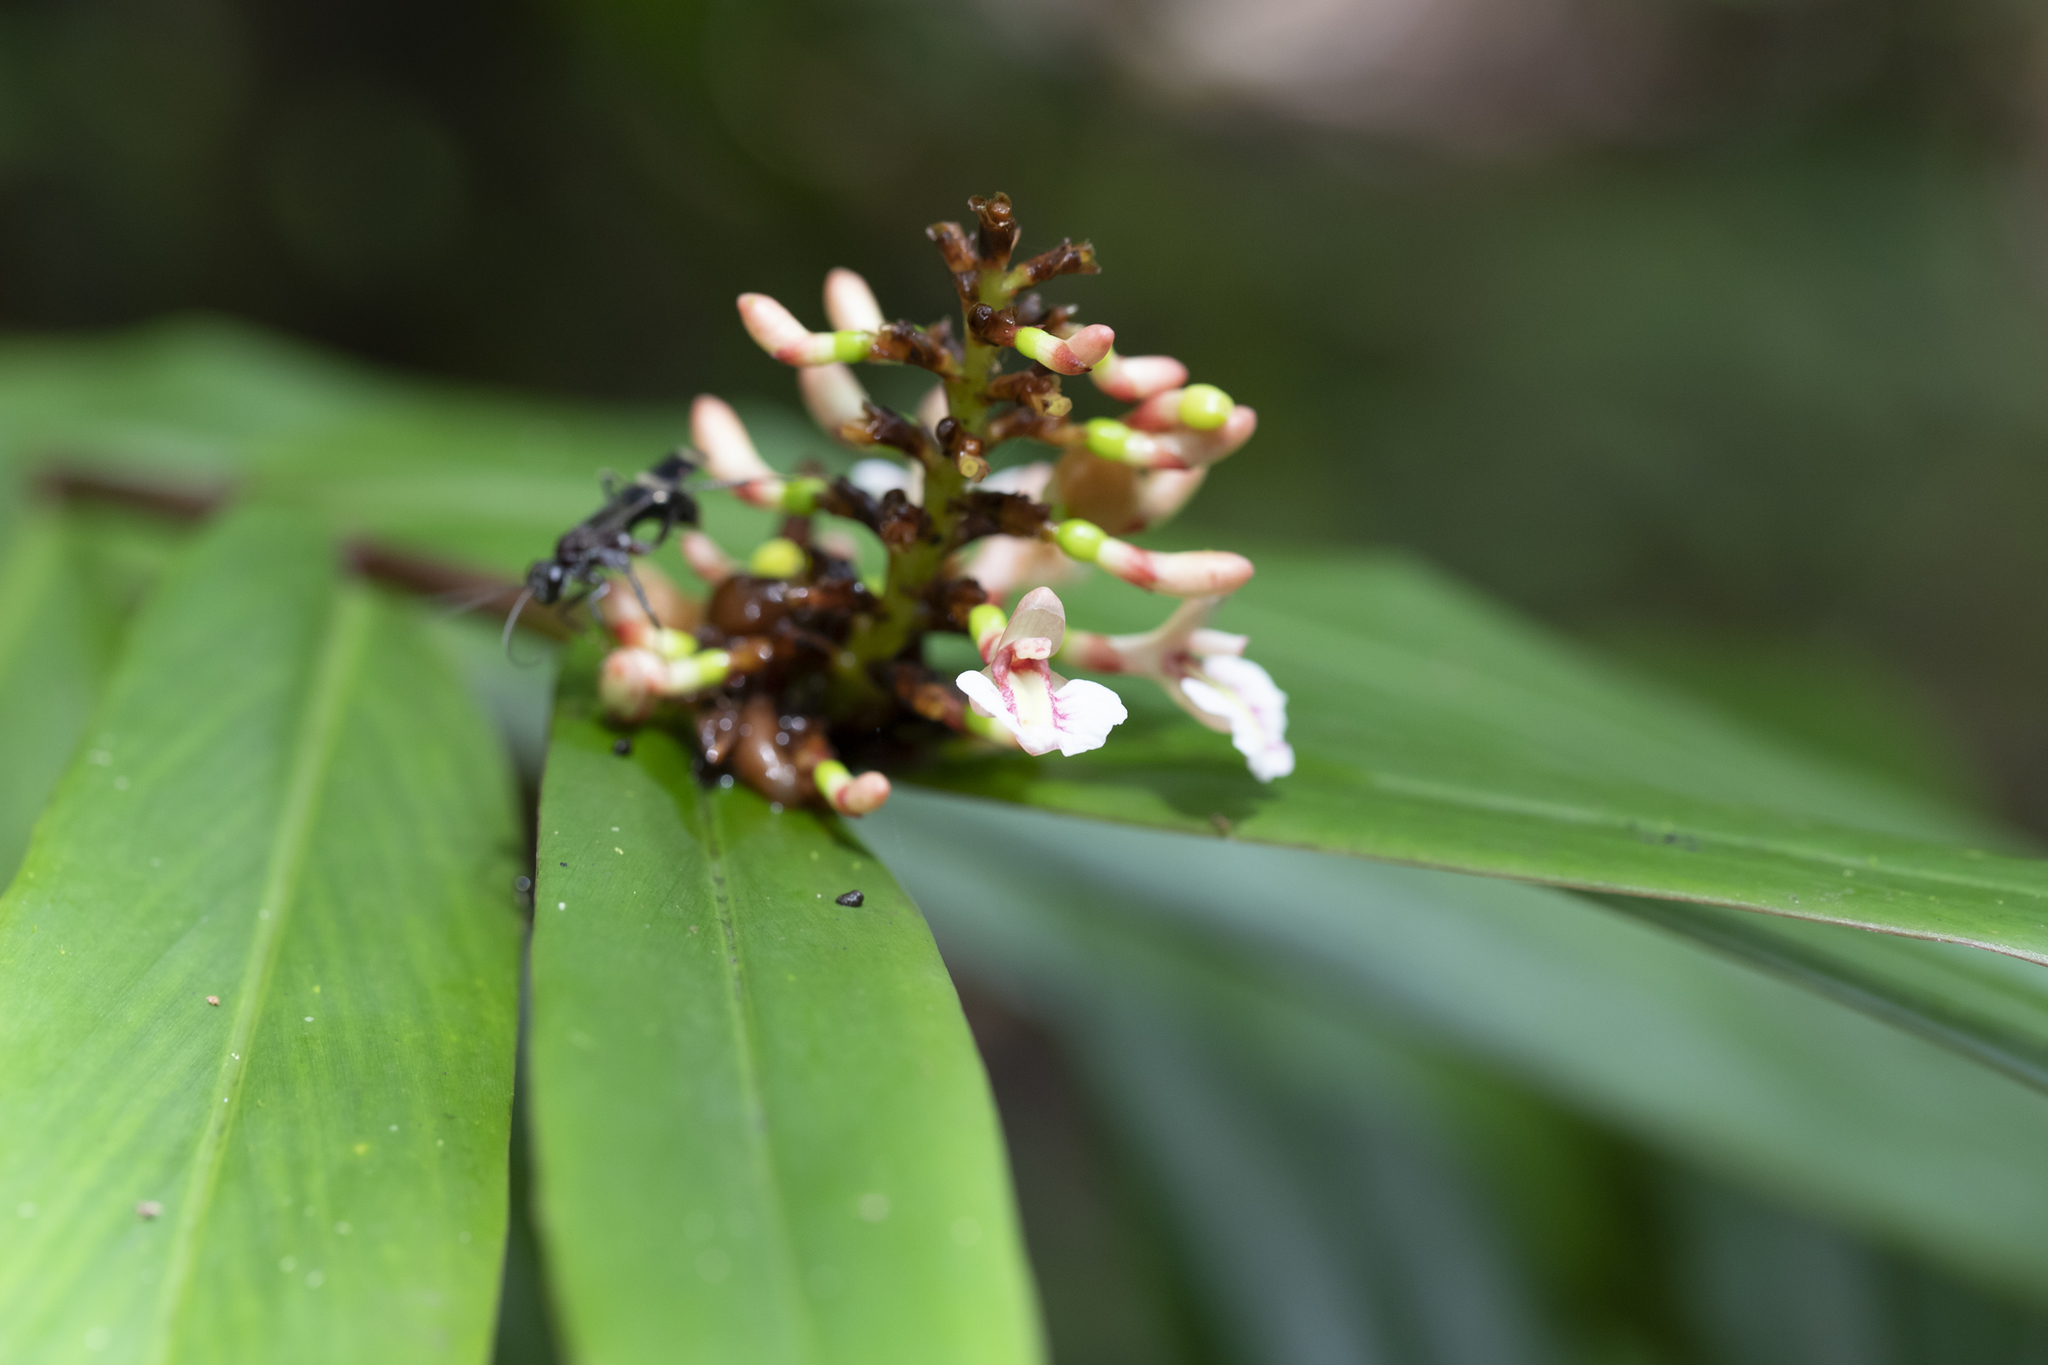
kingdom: Plantae
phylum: Tracheophyta
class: Liliopsida
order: Zingiberales
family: Zingiberaceae
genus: Alpinia
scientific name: Alpinia modesta
